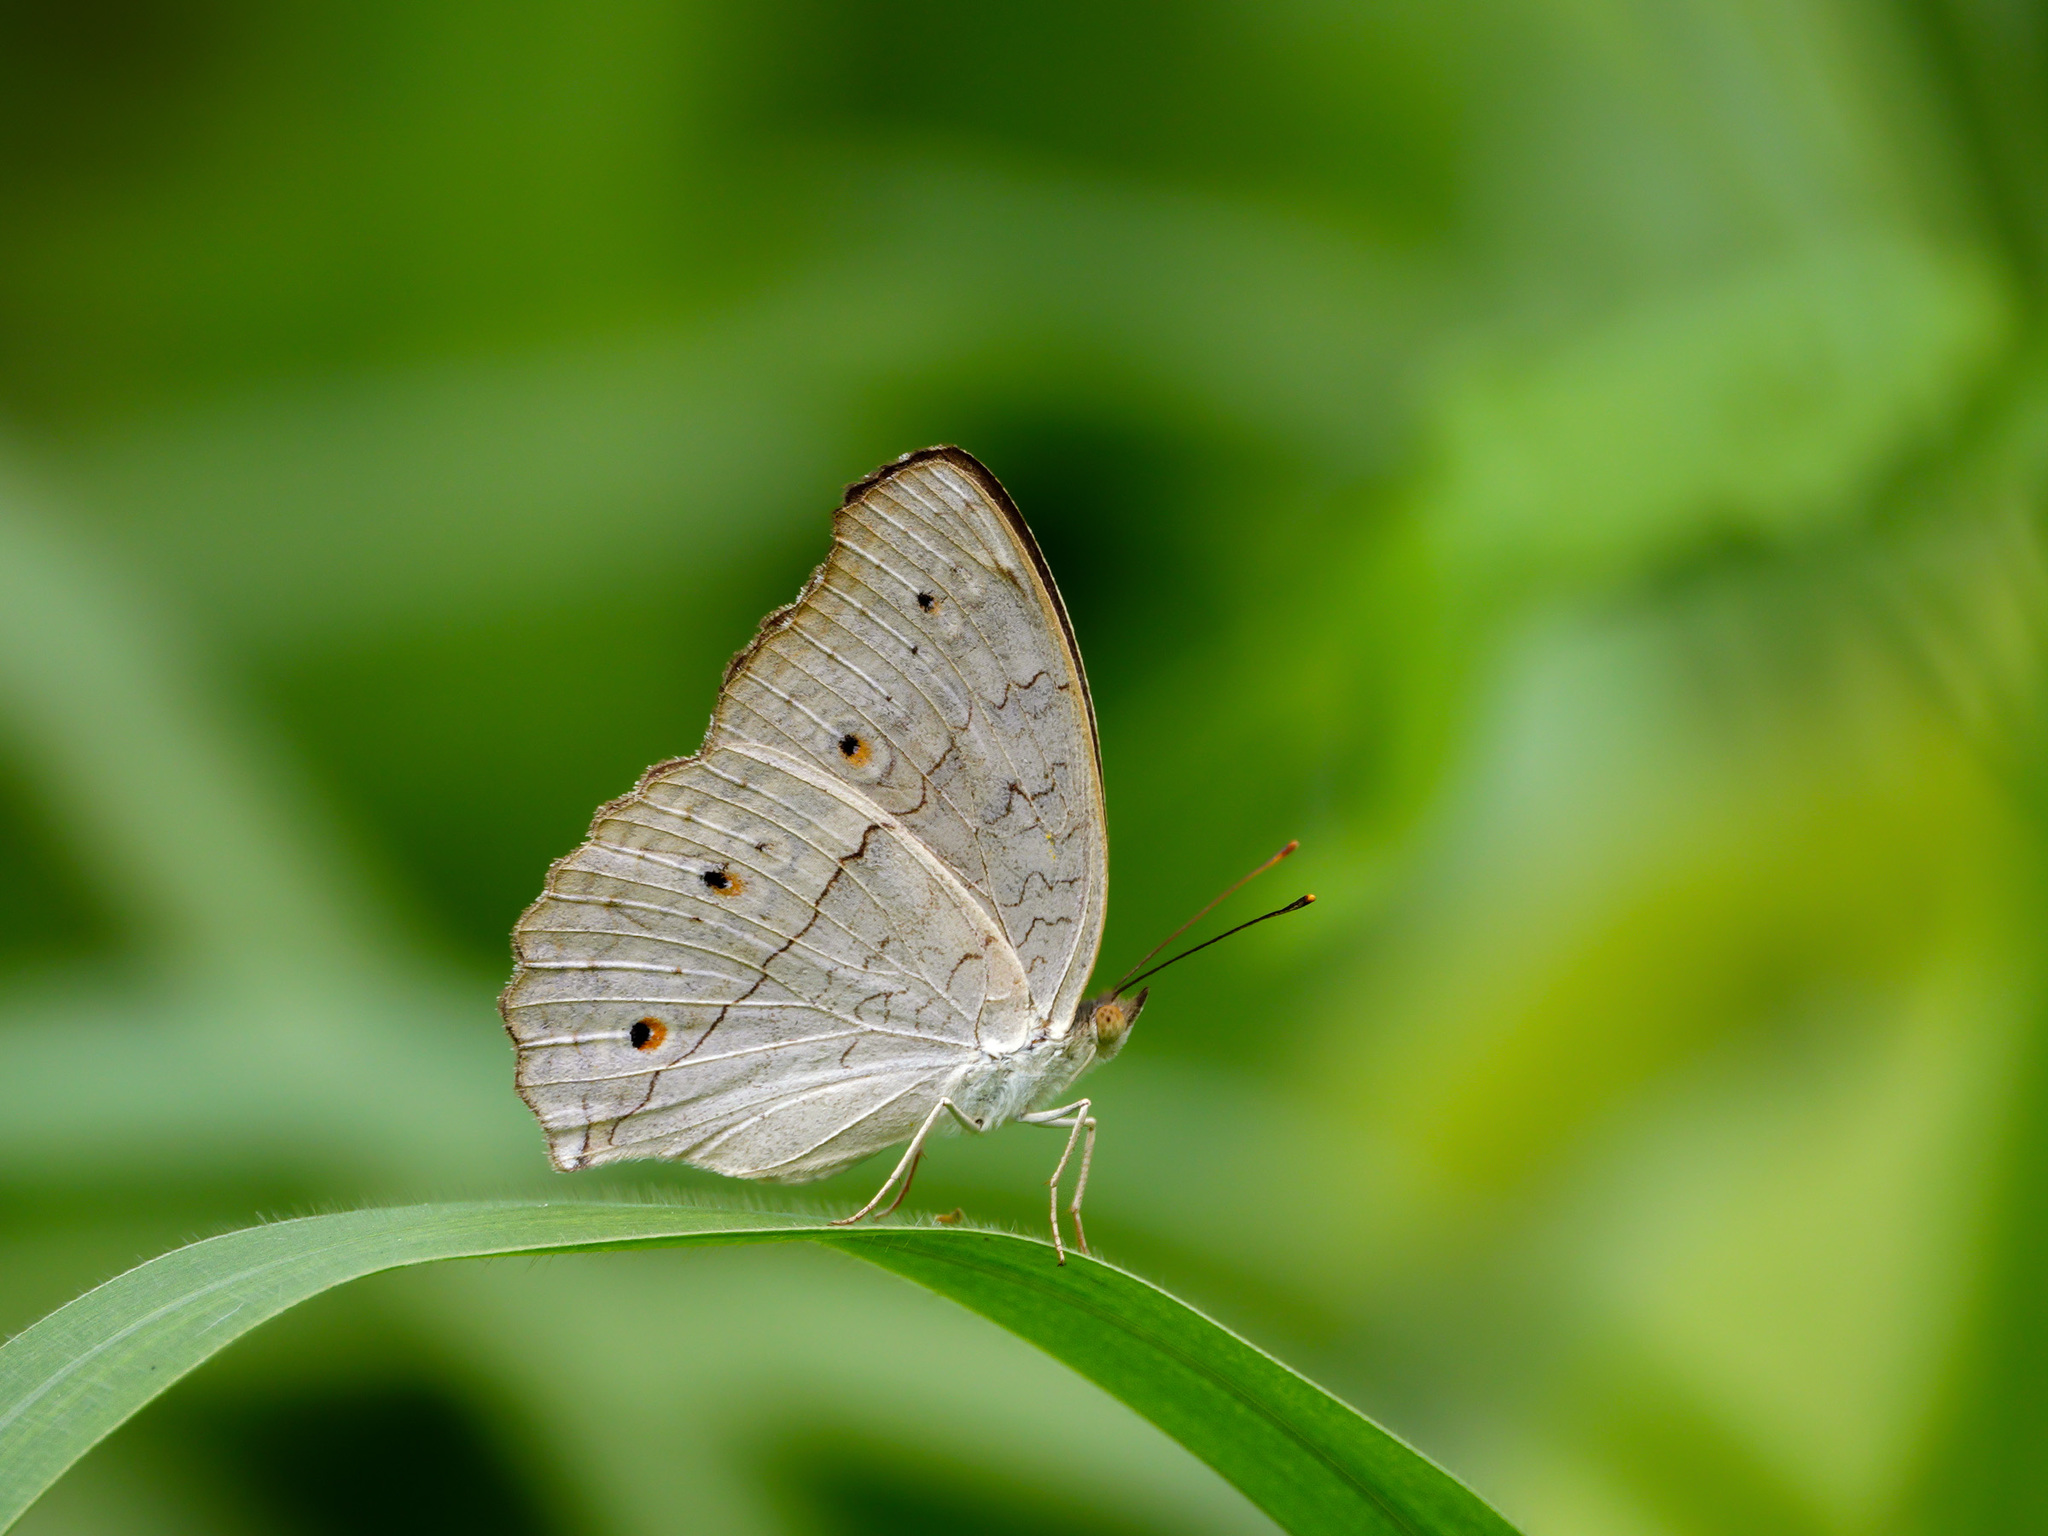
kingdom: Animalia
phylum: Arthropoda
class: Insecta
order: Lepidoptera
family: Nymphalidae
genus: Junonia
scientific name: Junonia atlites
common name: Grey pansy
